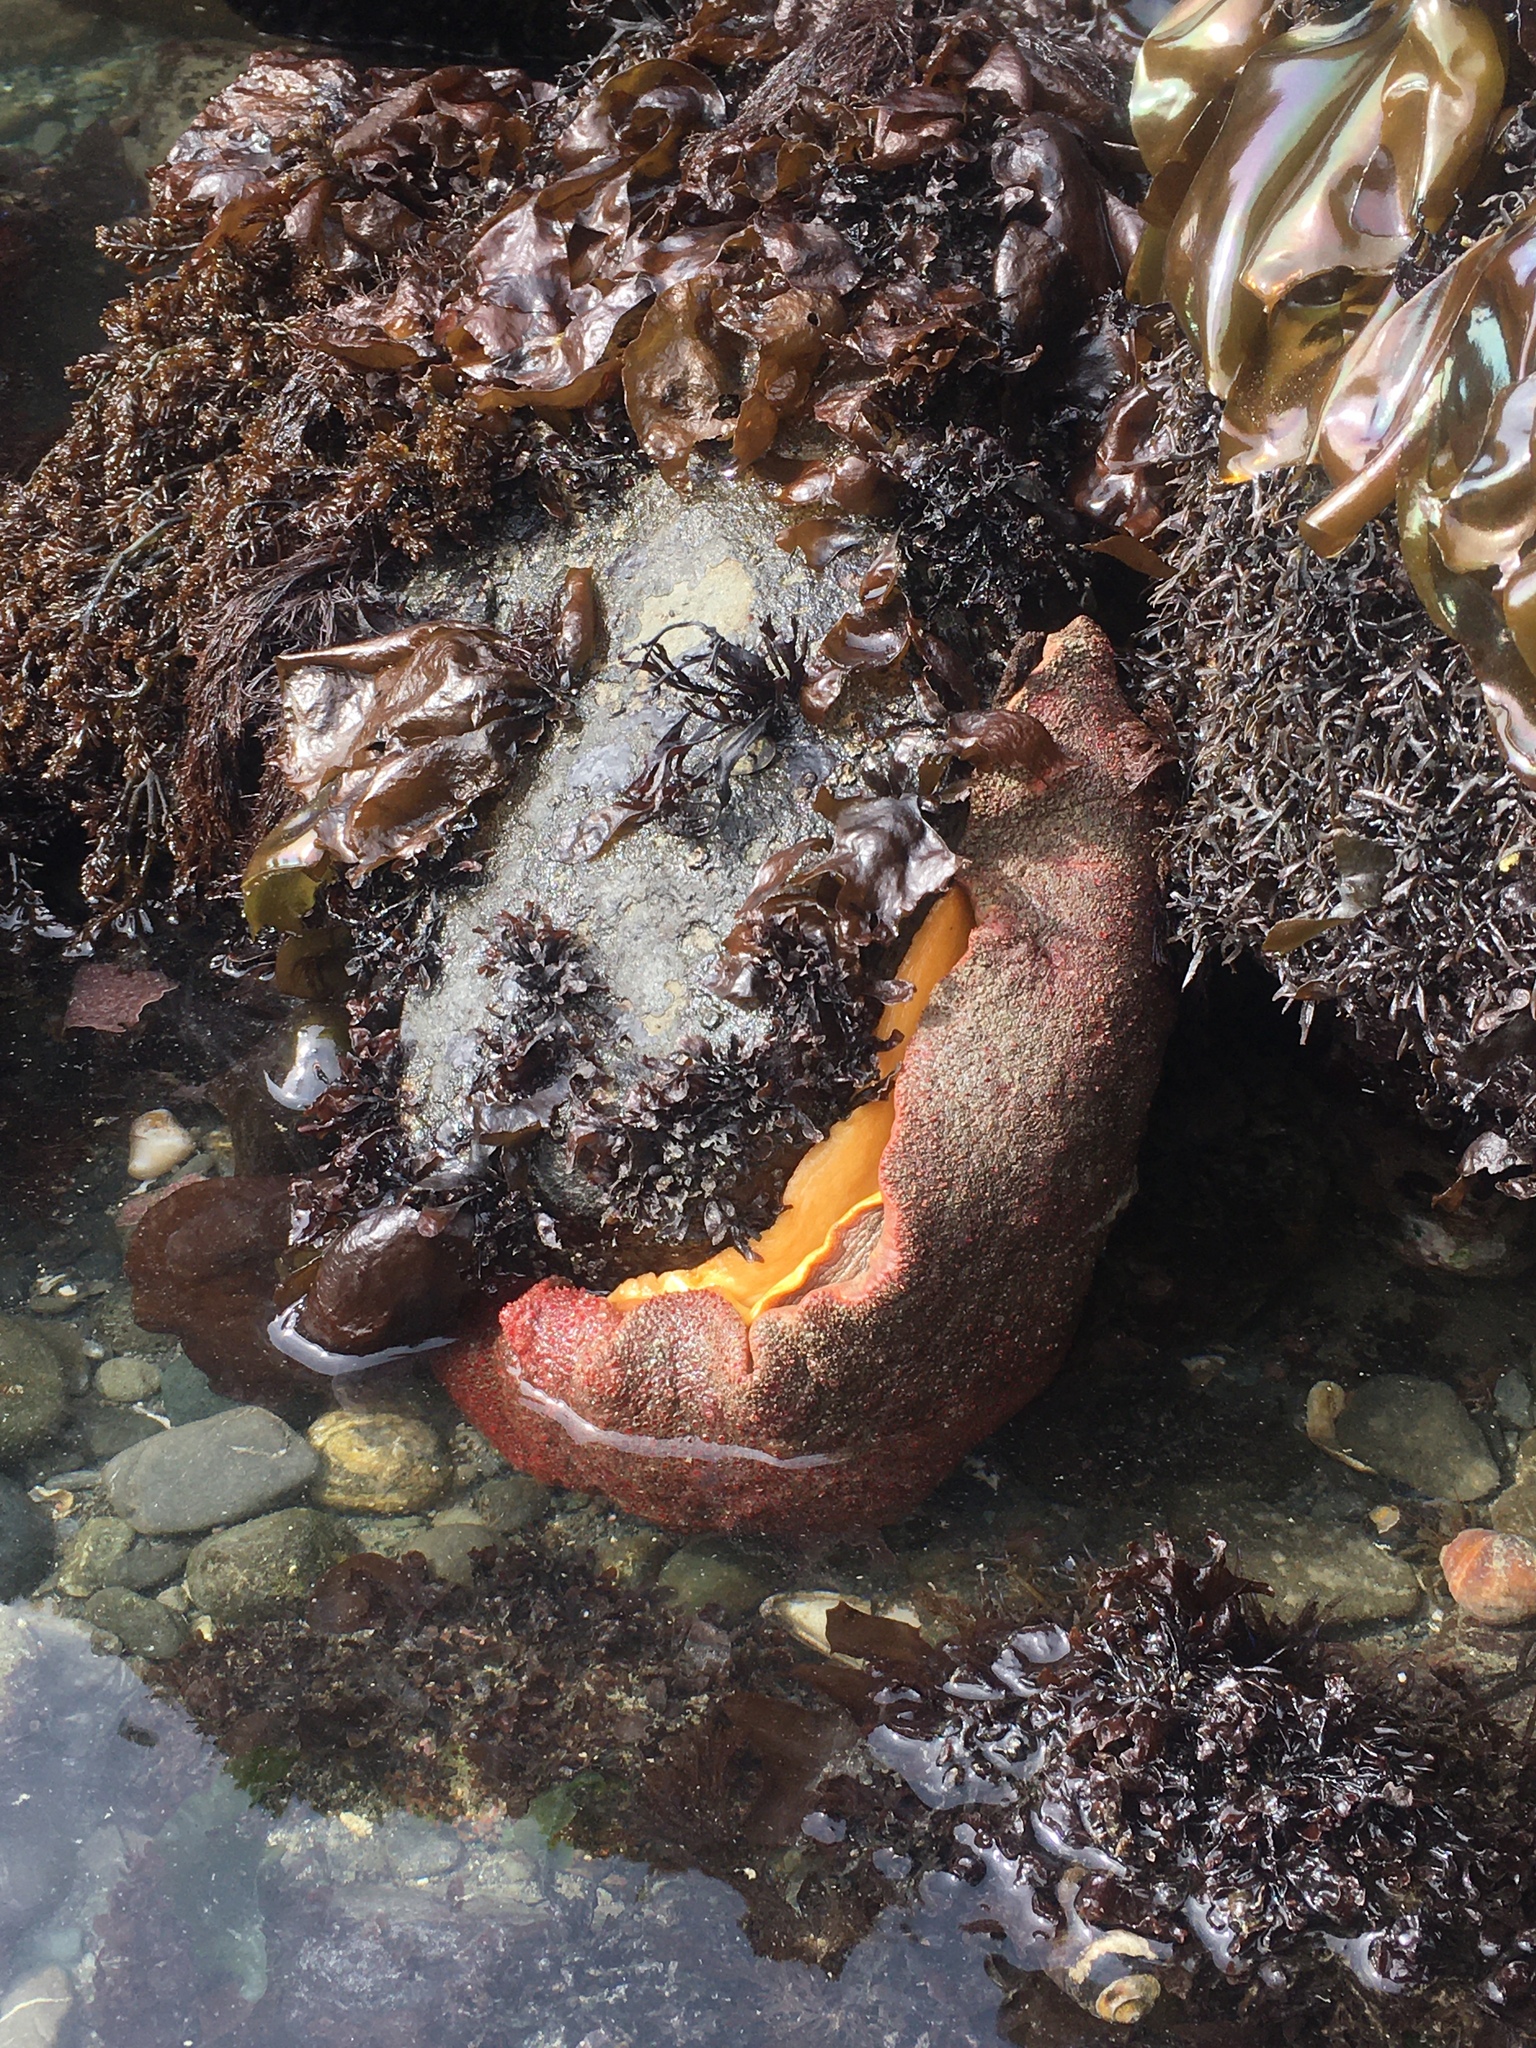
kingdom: Animalia
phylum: Mollusca
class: Polyplacophora
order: Chitonida
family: Acanthochitonidae
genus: Cryptochiton
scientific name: Cryptochiton stelleri
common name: Giant pacific chiton
